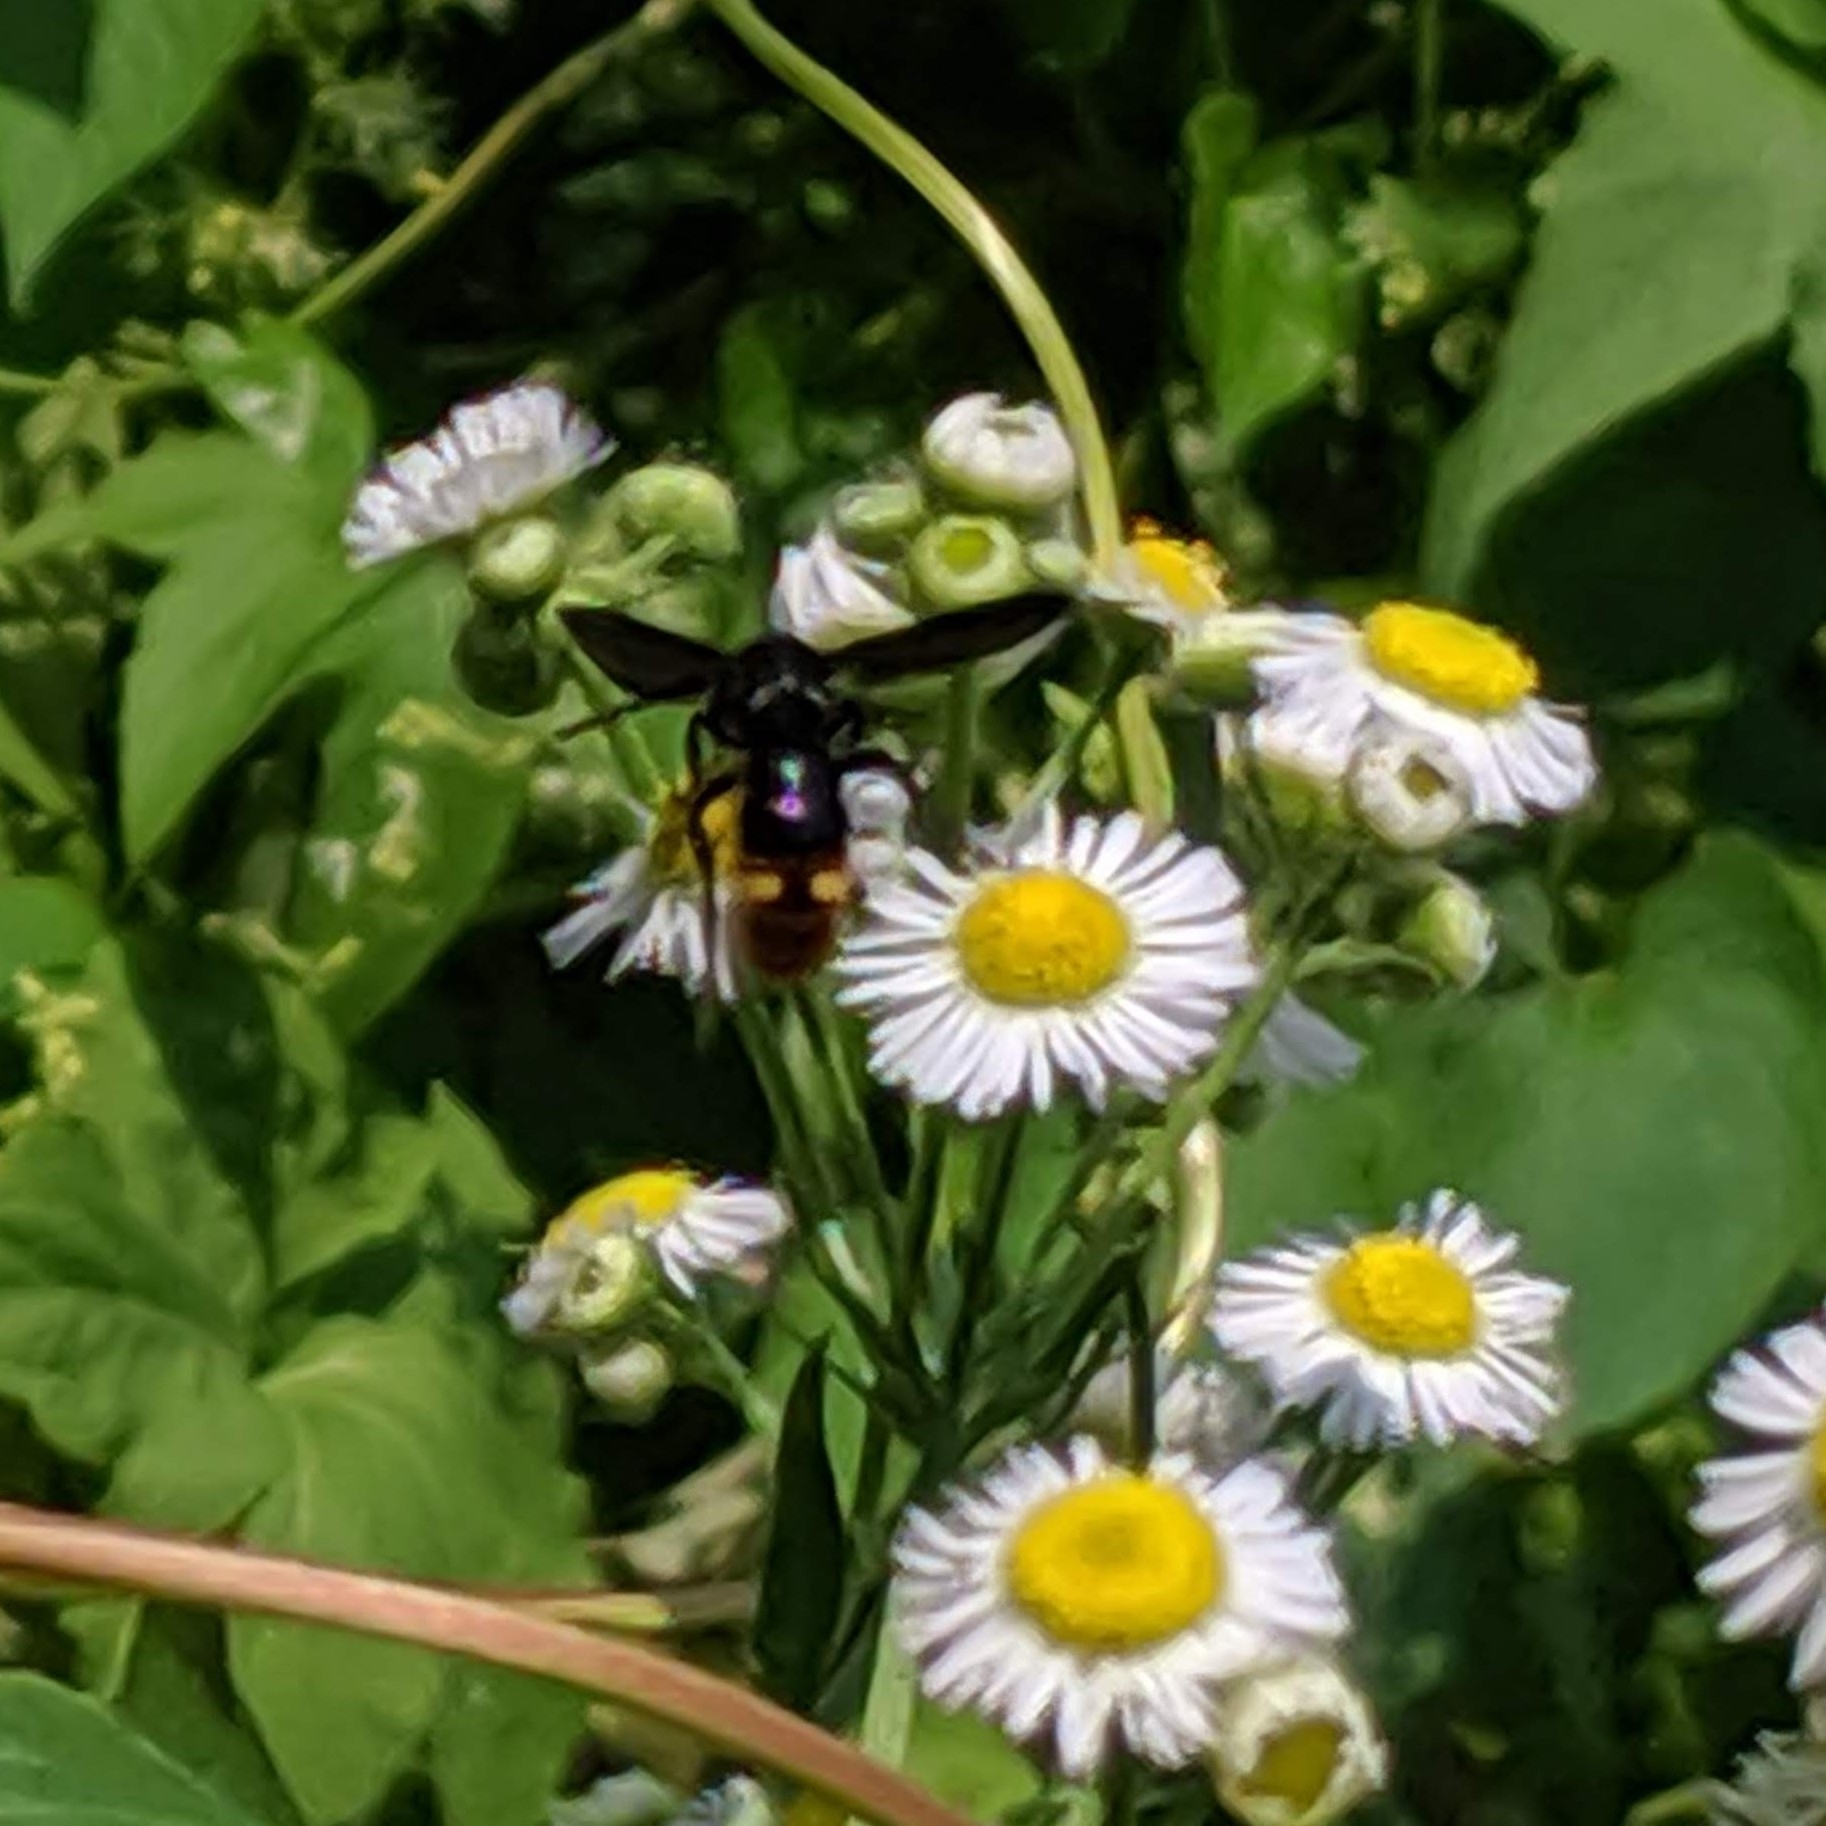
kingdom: Animalia
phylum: Arthropoda
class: Insecta
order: Hymenoptera
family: Scoliidae
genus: Scolia
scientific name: Scolia dubia
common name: Blue-winged scoliid wasp
